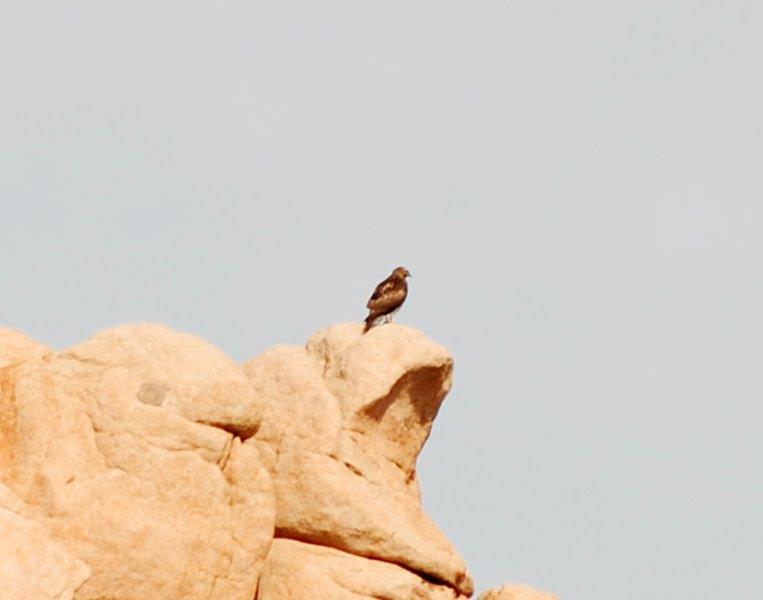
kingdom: Animalia
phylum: Chordata
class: Aves
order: Accipitriformes
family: Accipitridae
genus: Buteo
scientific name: Buteo jamaicensis
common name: Red-tailed hawk
